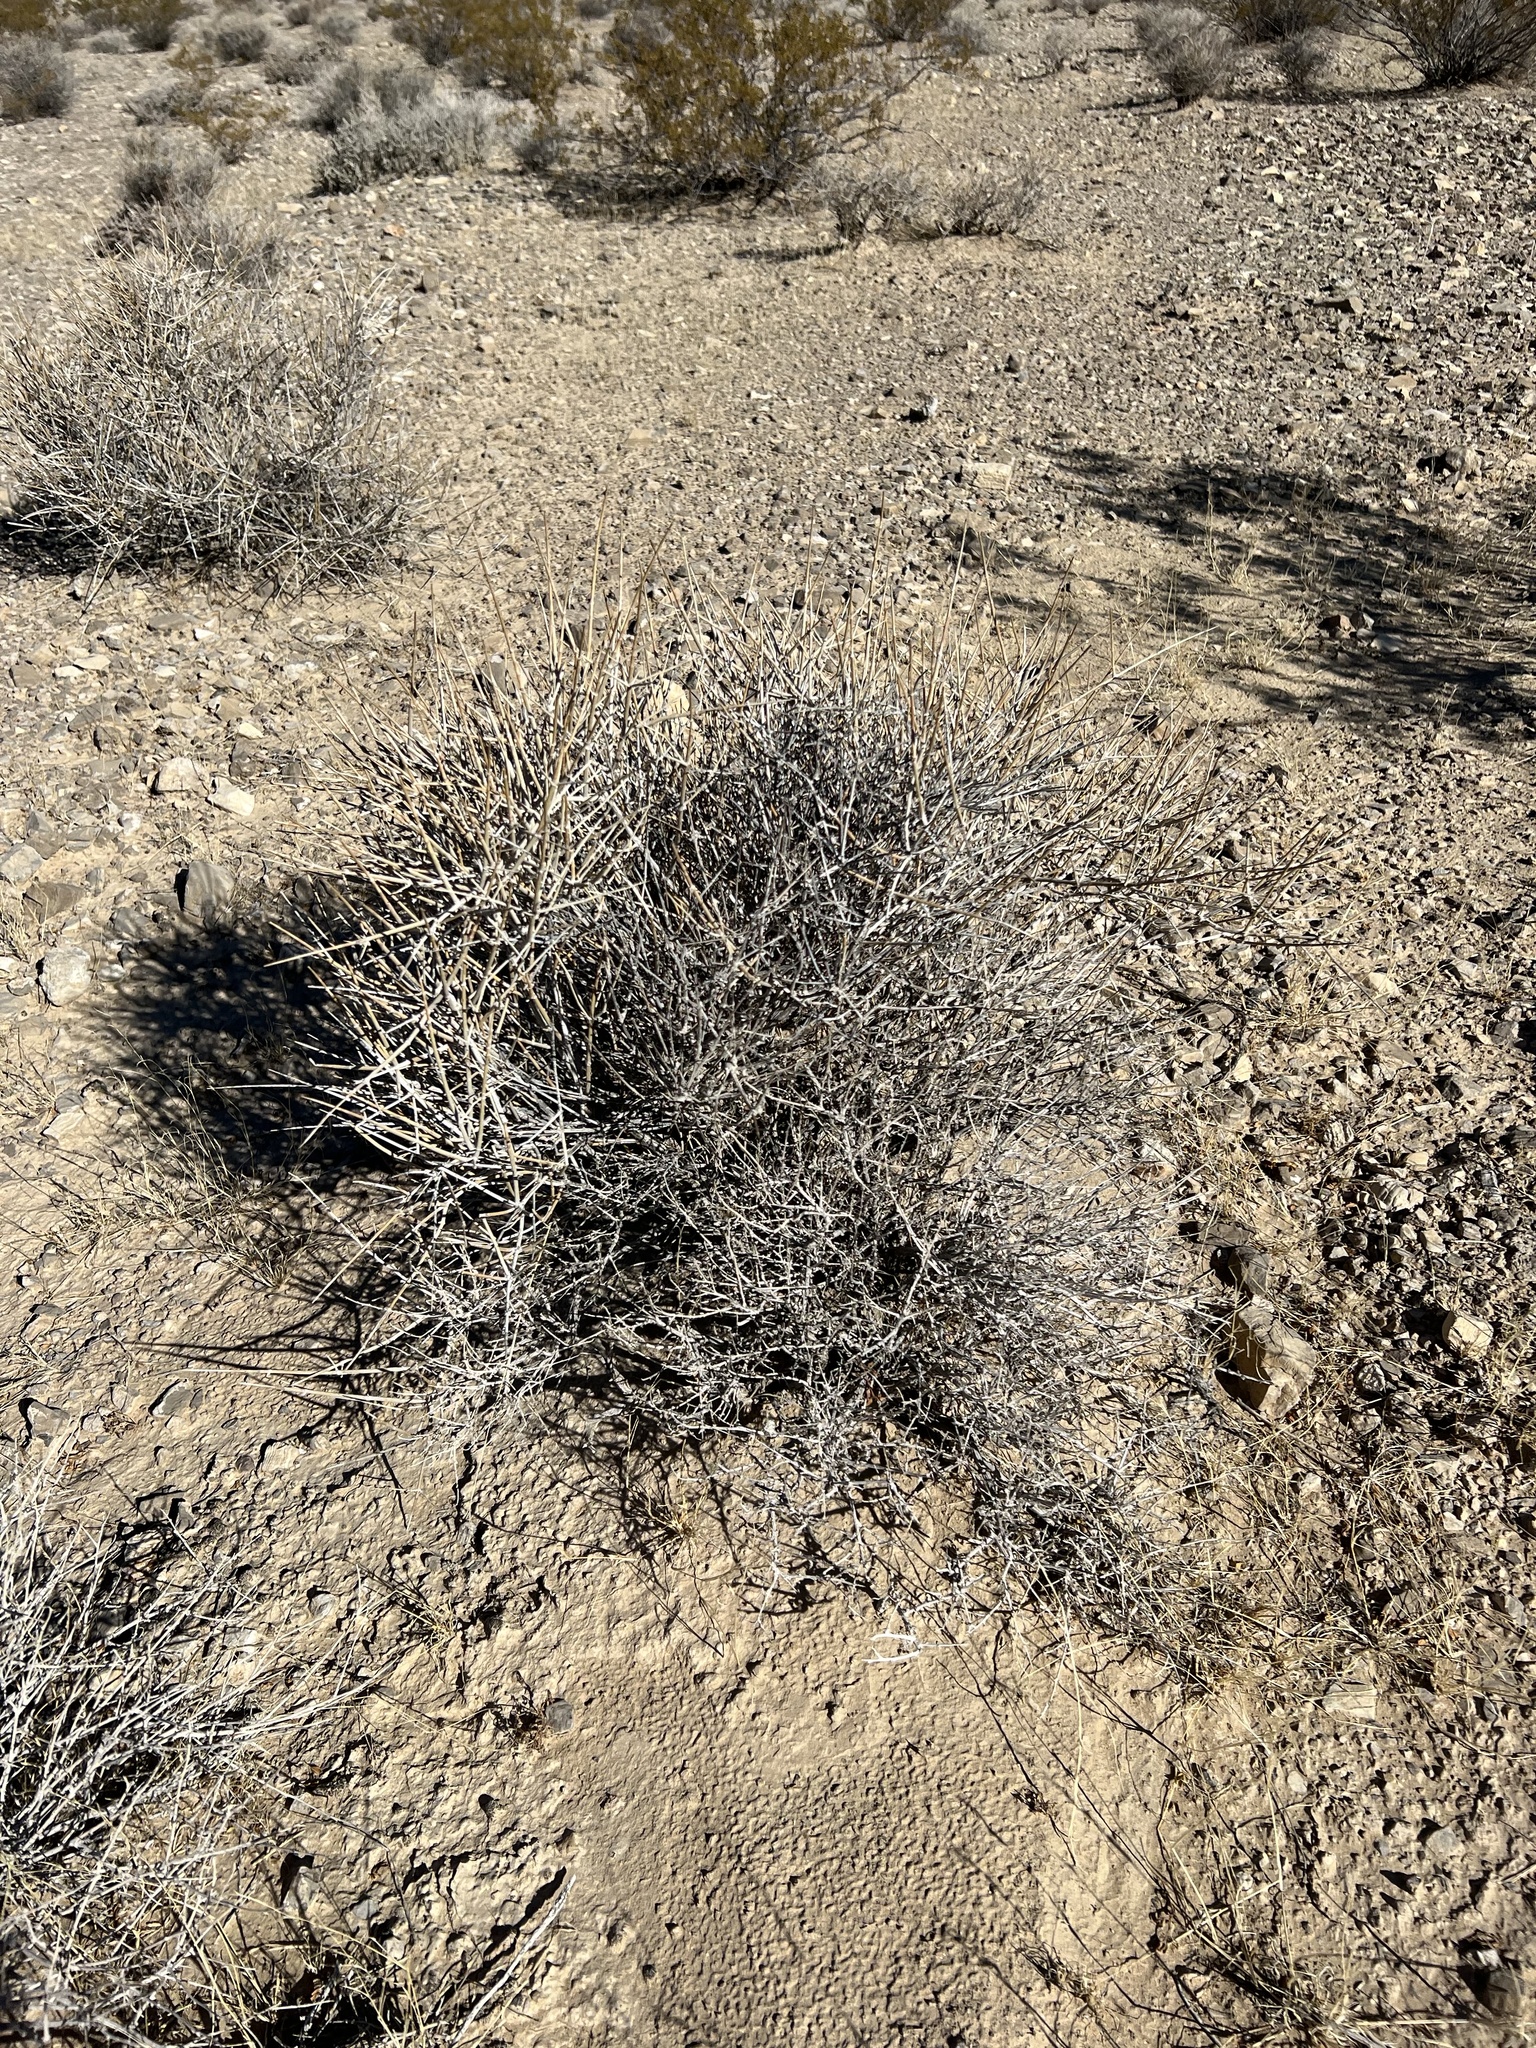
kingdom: Plantae
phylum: Tracheophyta
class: Gnetopsida
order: Ephedrales
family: Ephedraceae
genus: Ephedra
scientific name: Ephedra nevadensis
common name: Gray ephedra
